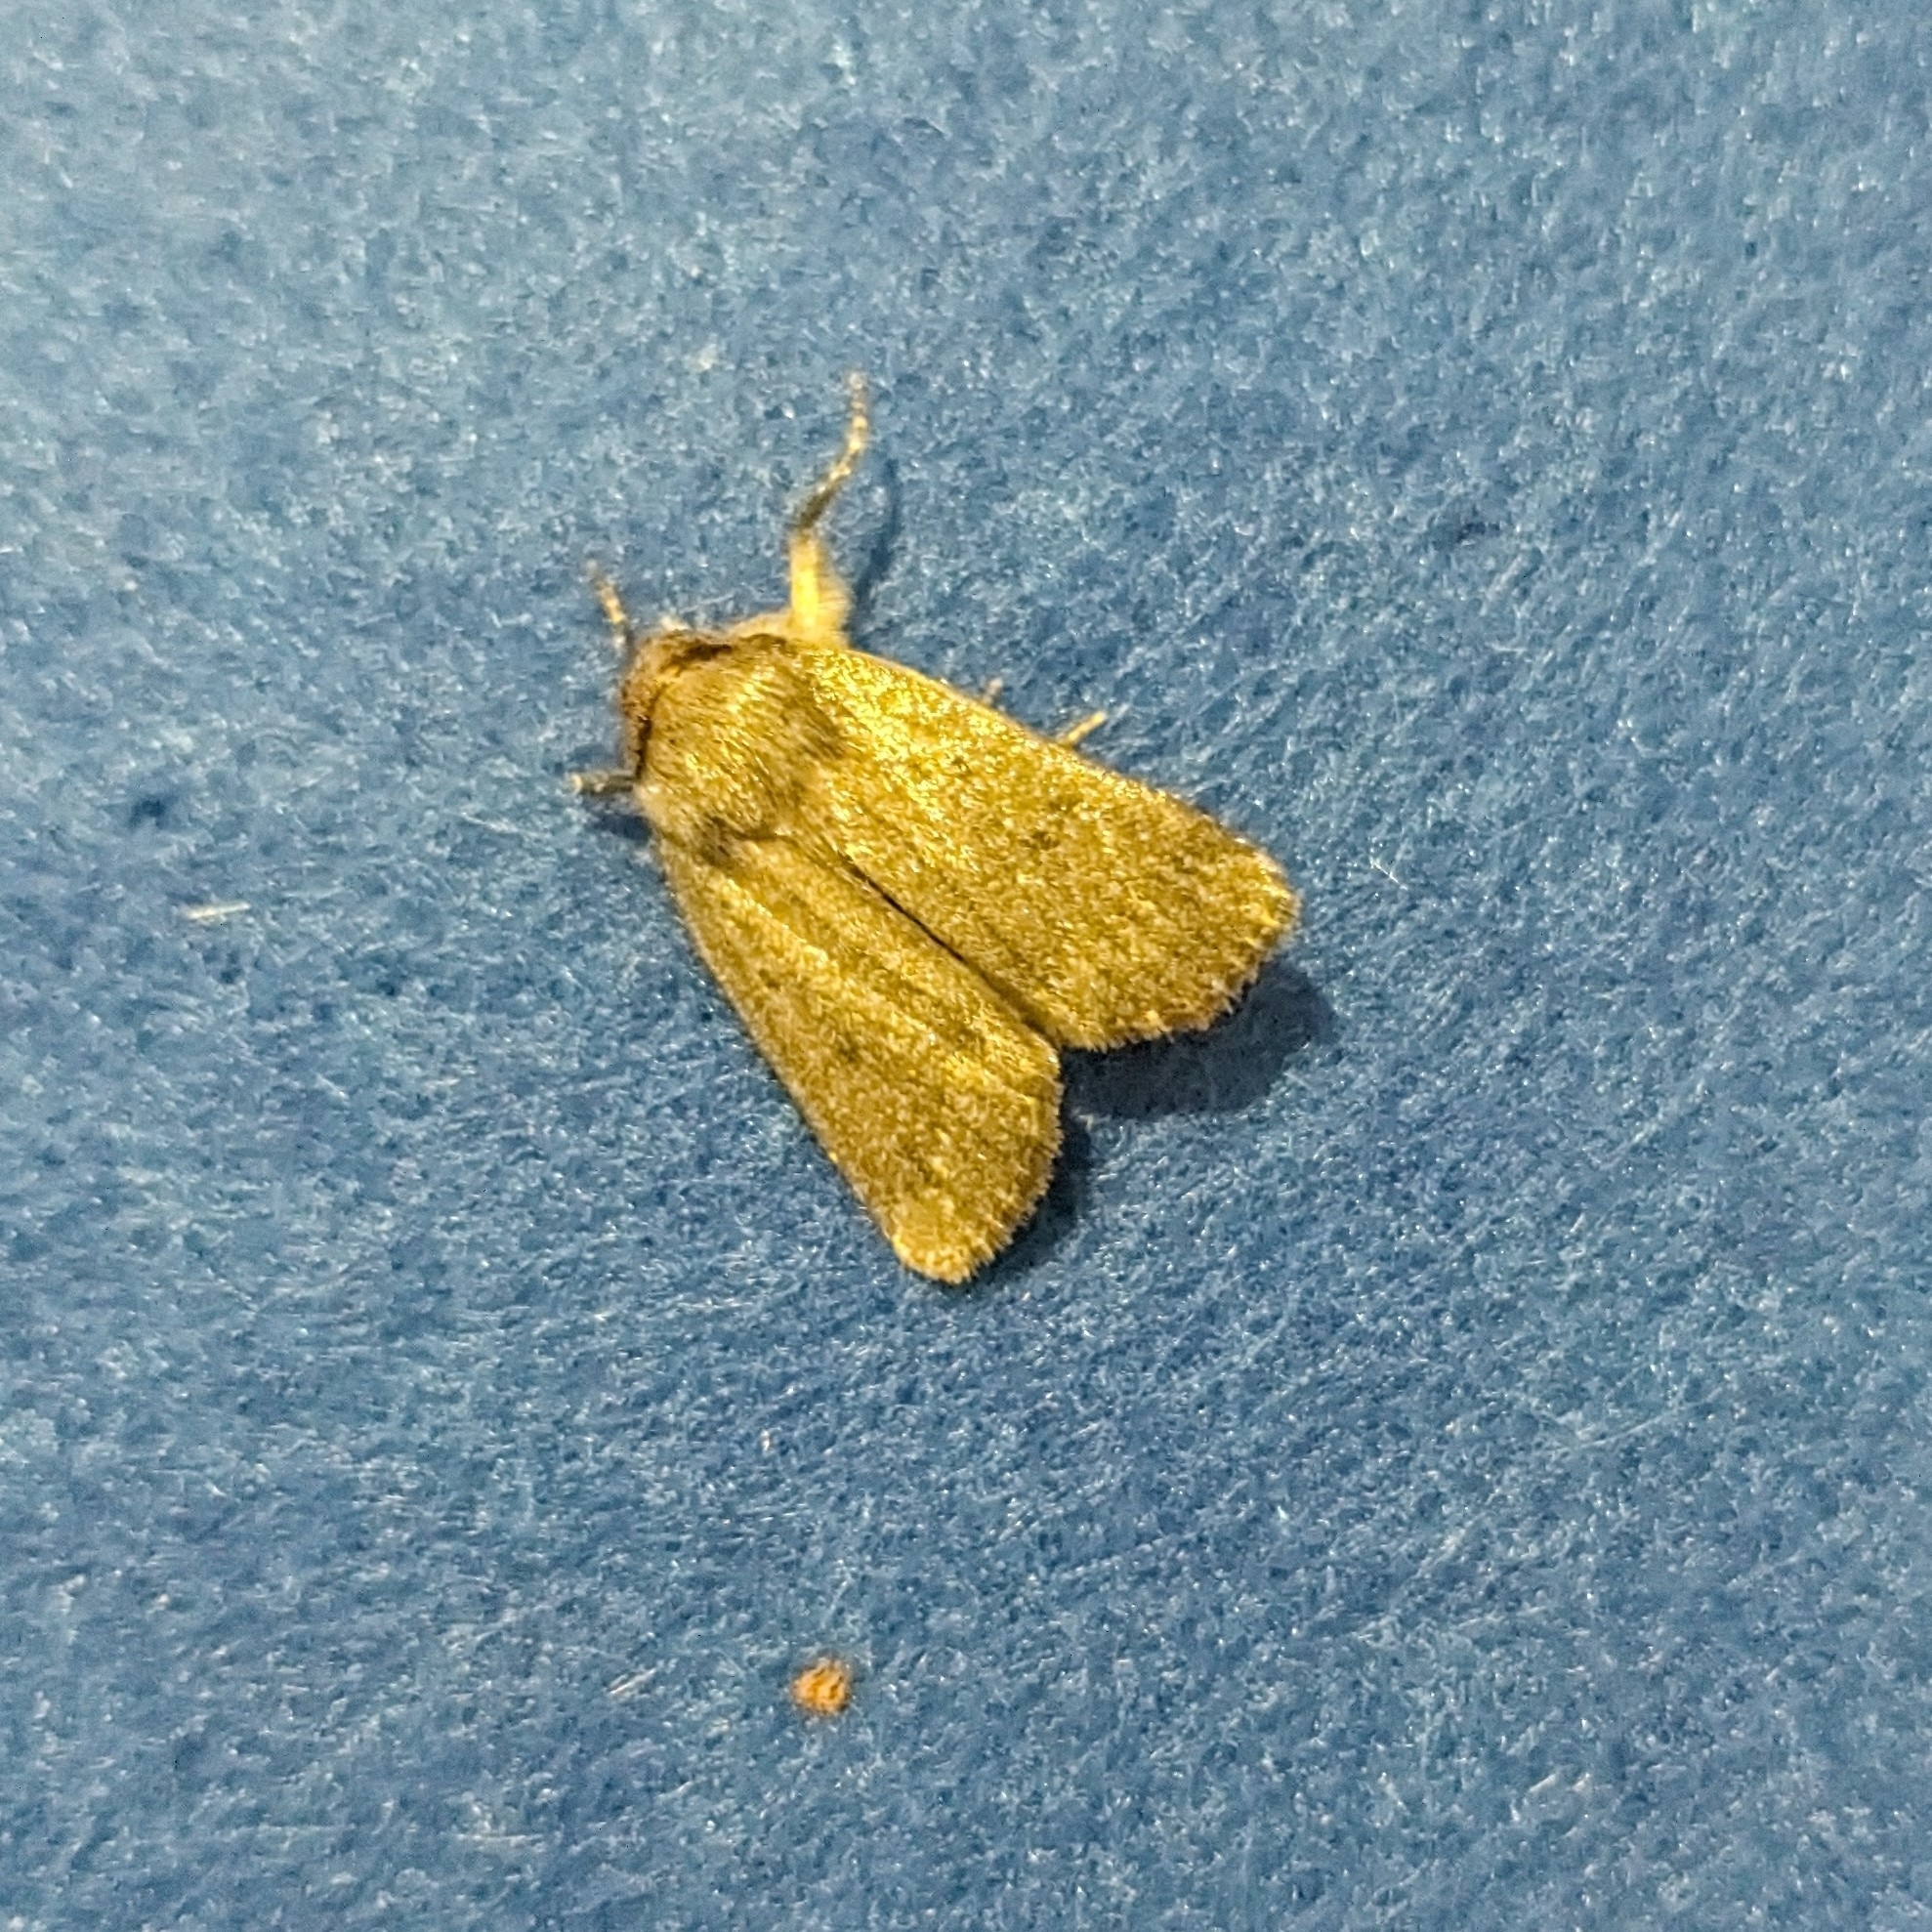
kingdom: Animalia
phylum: Arthropoda
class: Insecta
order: Lepidoptera
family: Noctuidae
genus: Amphipyra
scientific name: Amphipyra tragopoginis
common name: Mouse moth
